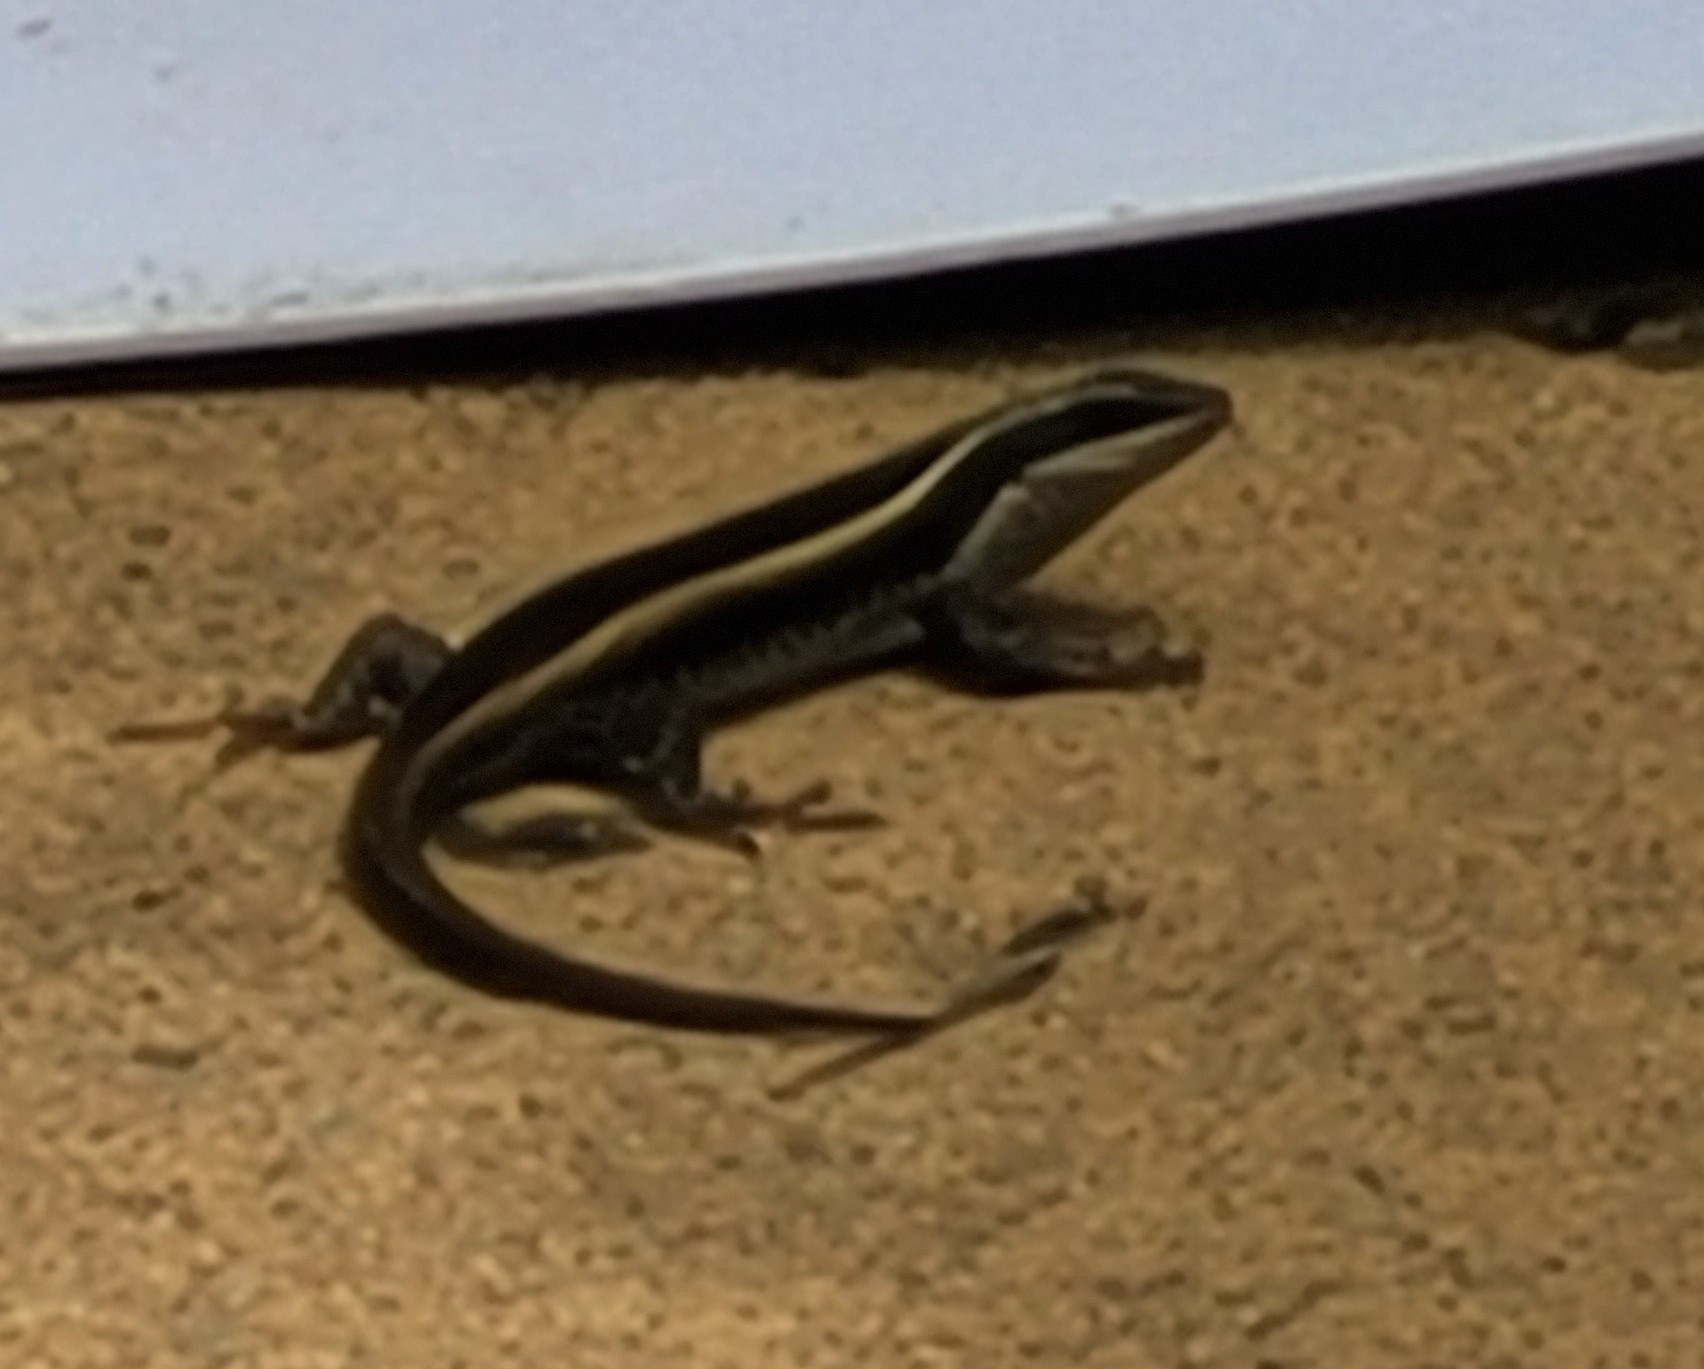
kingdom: Animalia
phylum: Chordata
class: Squamata
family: Scincidae
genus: Trachylepis
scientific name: Trachylepis striata
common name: African striped mabuya
